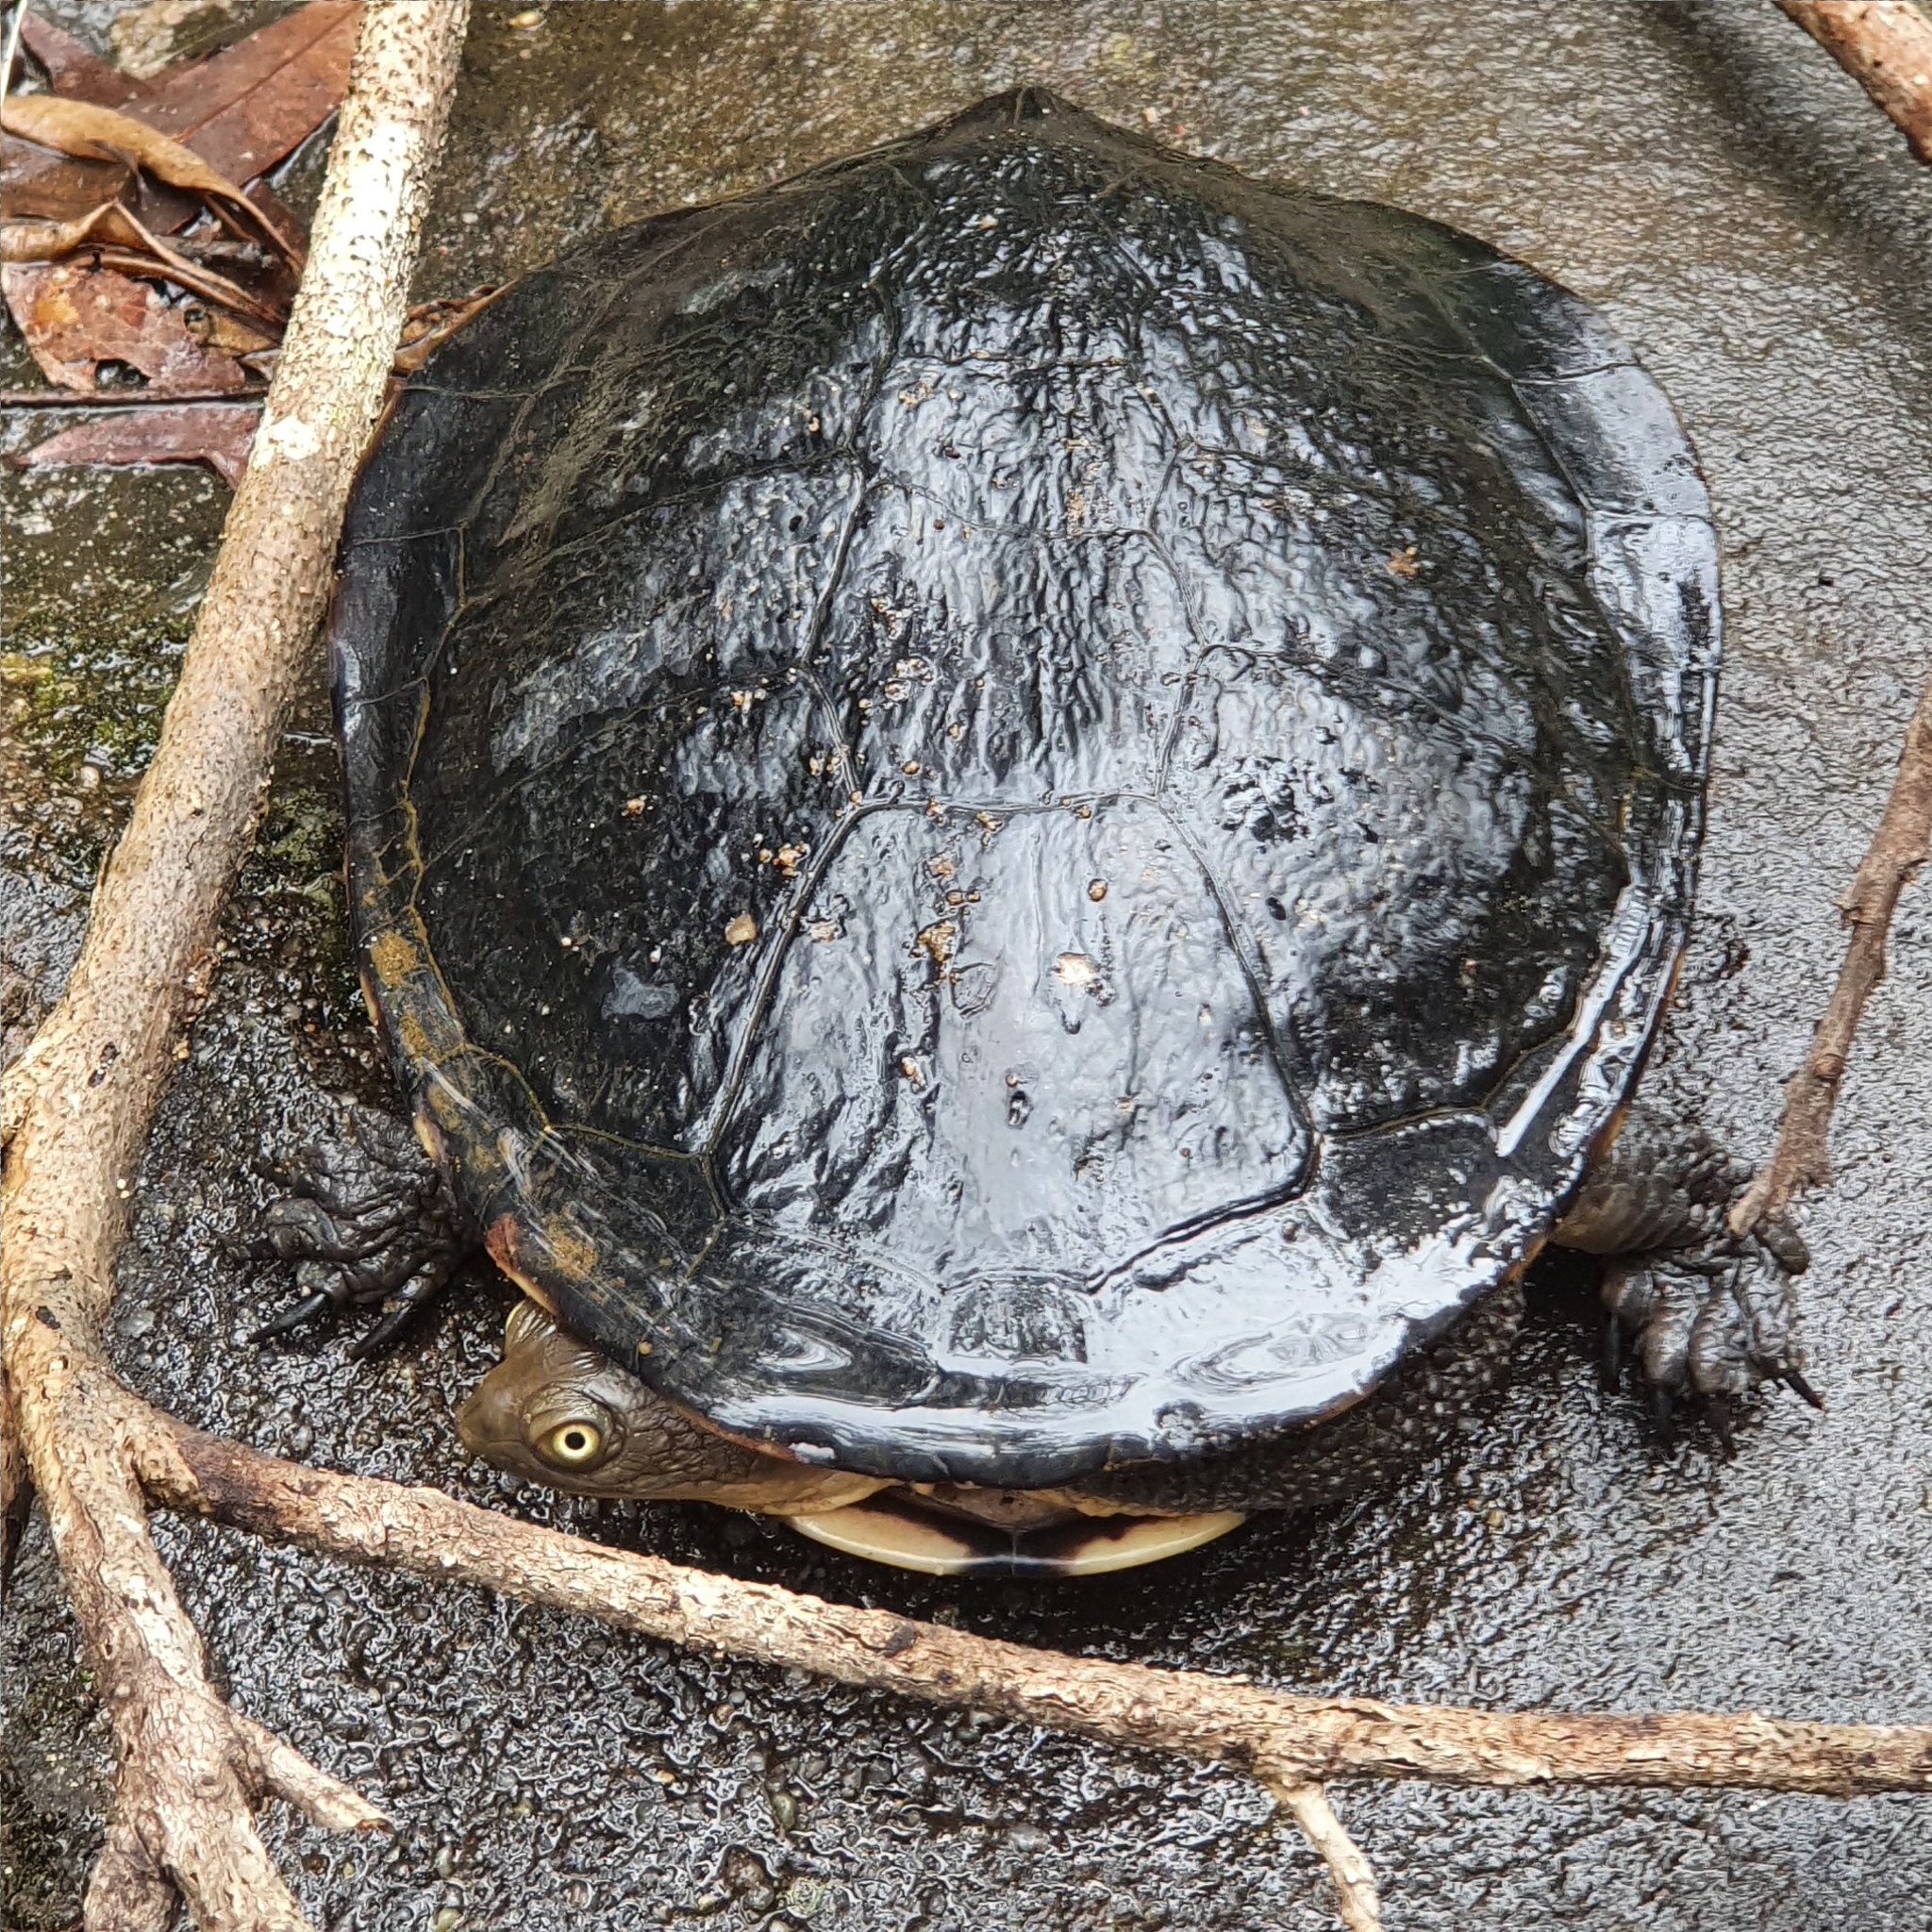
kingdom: Animalia
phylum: Chordata
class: Testudines
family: Chelidae
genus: Chelodina
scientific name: Chelodina longicollis
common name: Eastern snake-necked turtle
